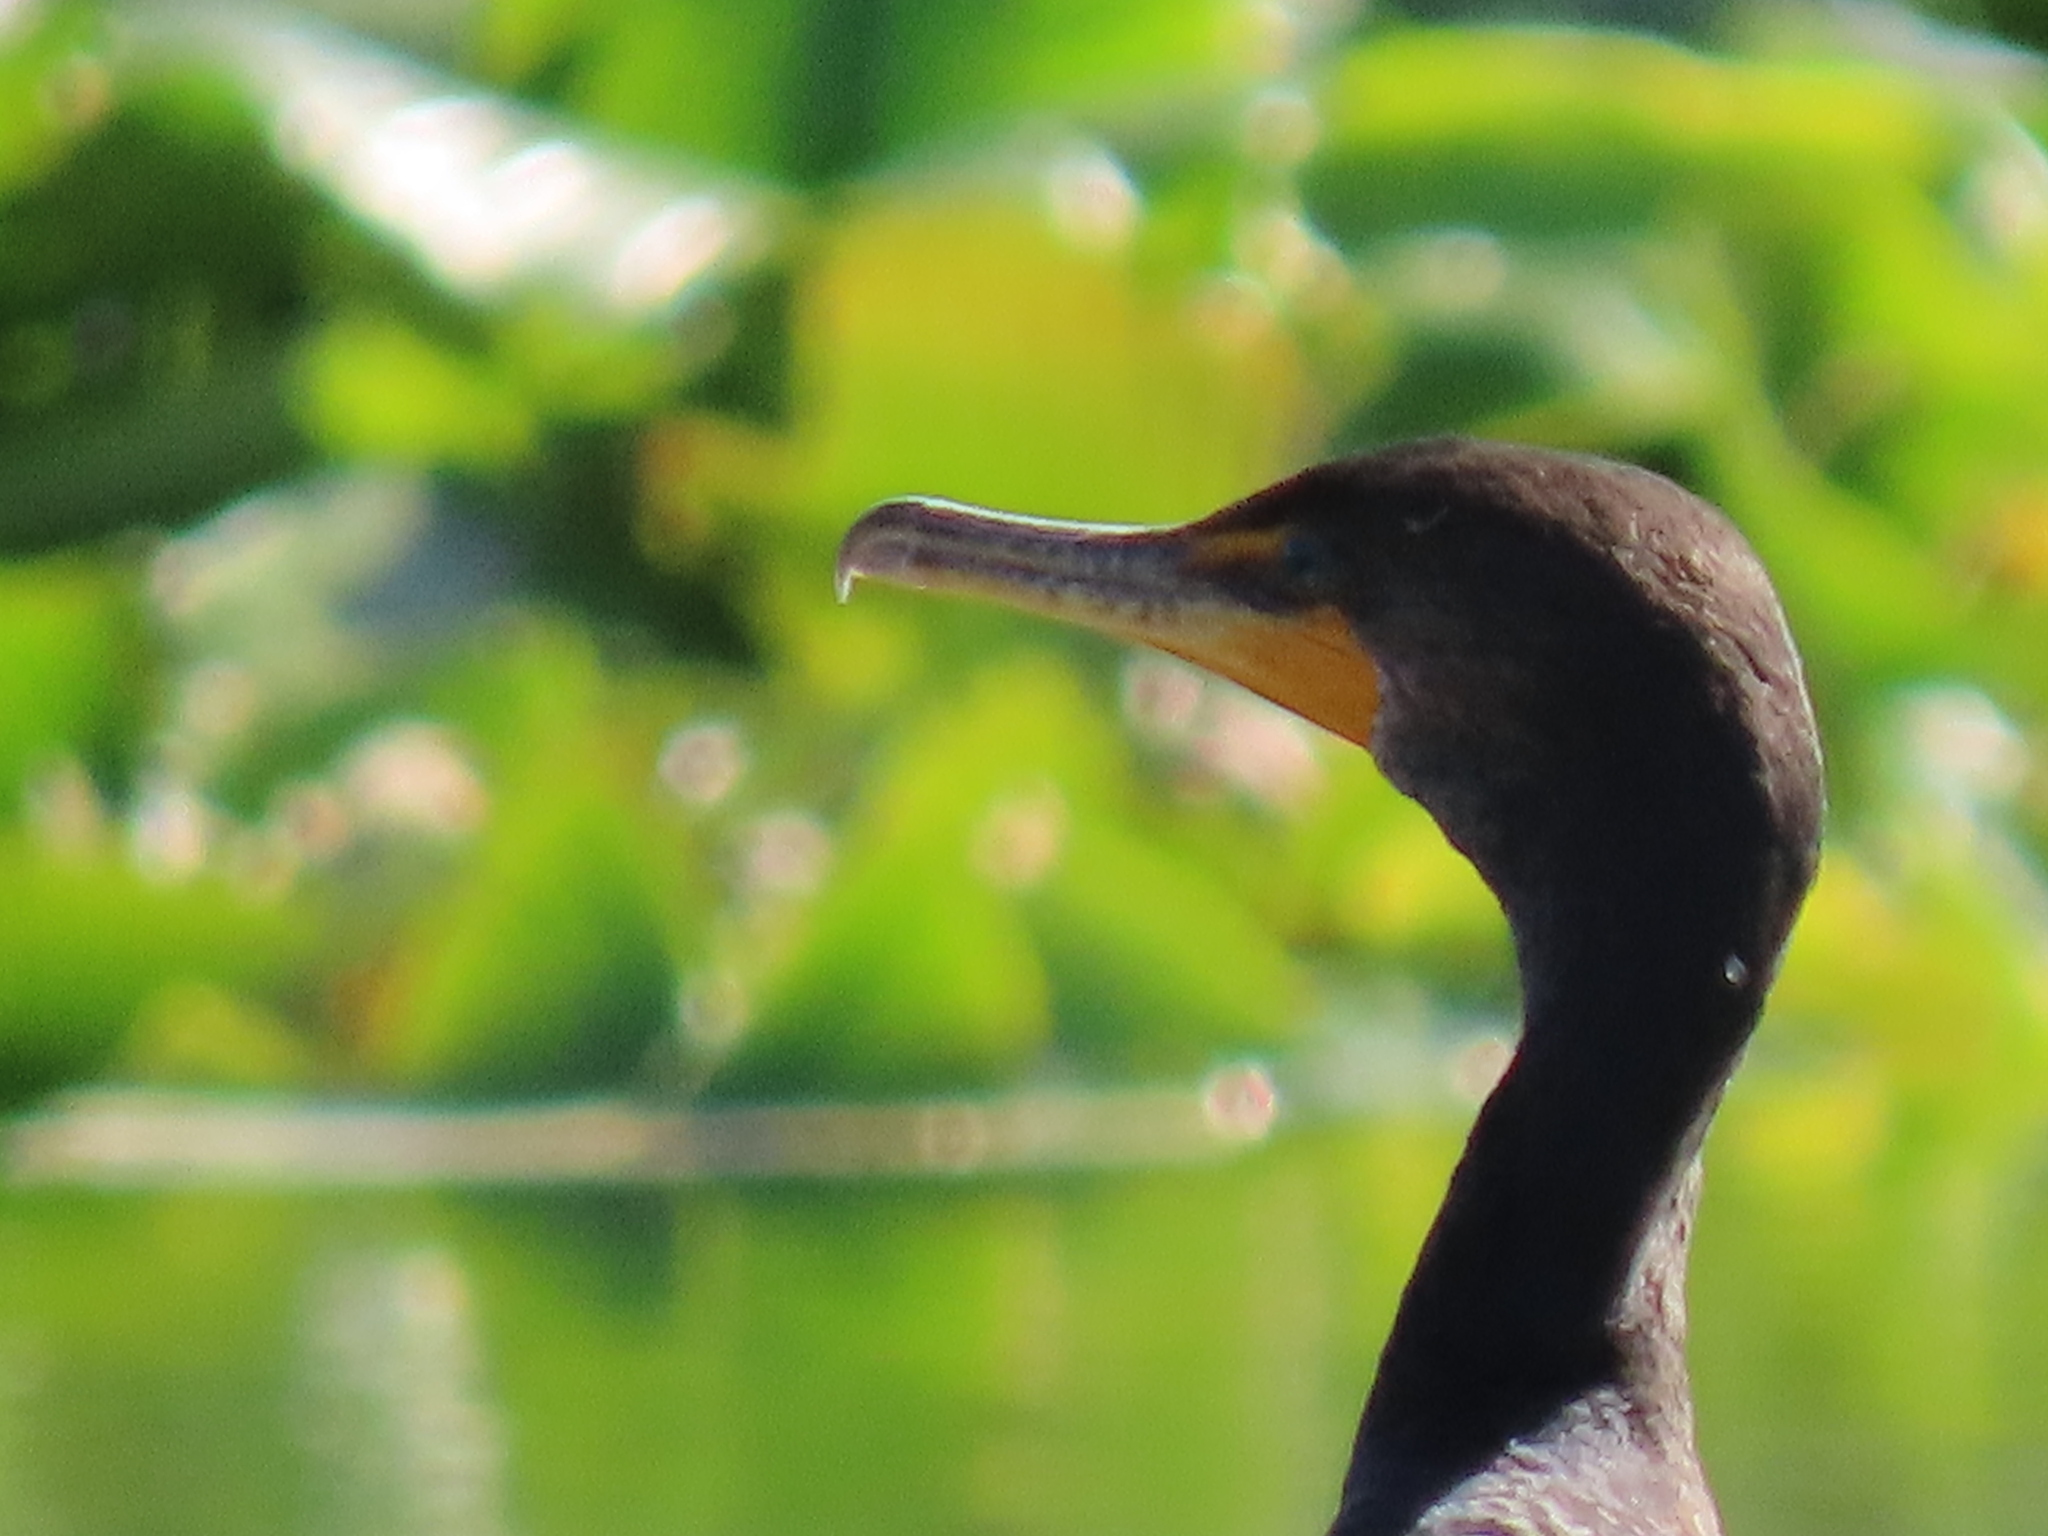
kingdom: Animalia
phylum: Chordata
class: Aves
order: Suliformes
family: Phalacrocoracidae
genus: Phalacrocorax
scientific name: Phalacrocorax auritus
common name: Double-crested cormorant
